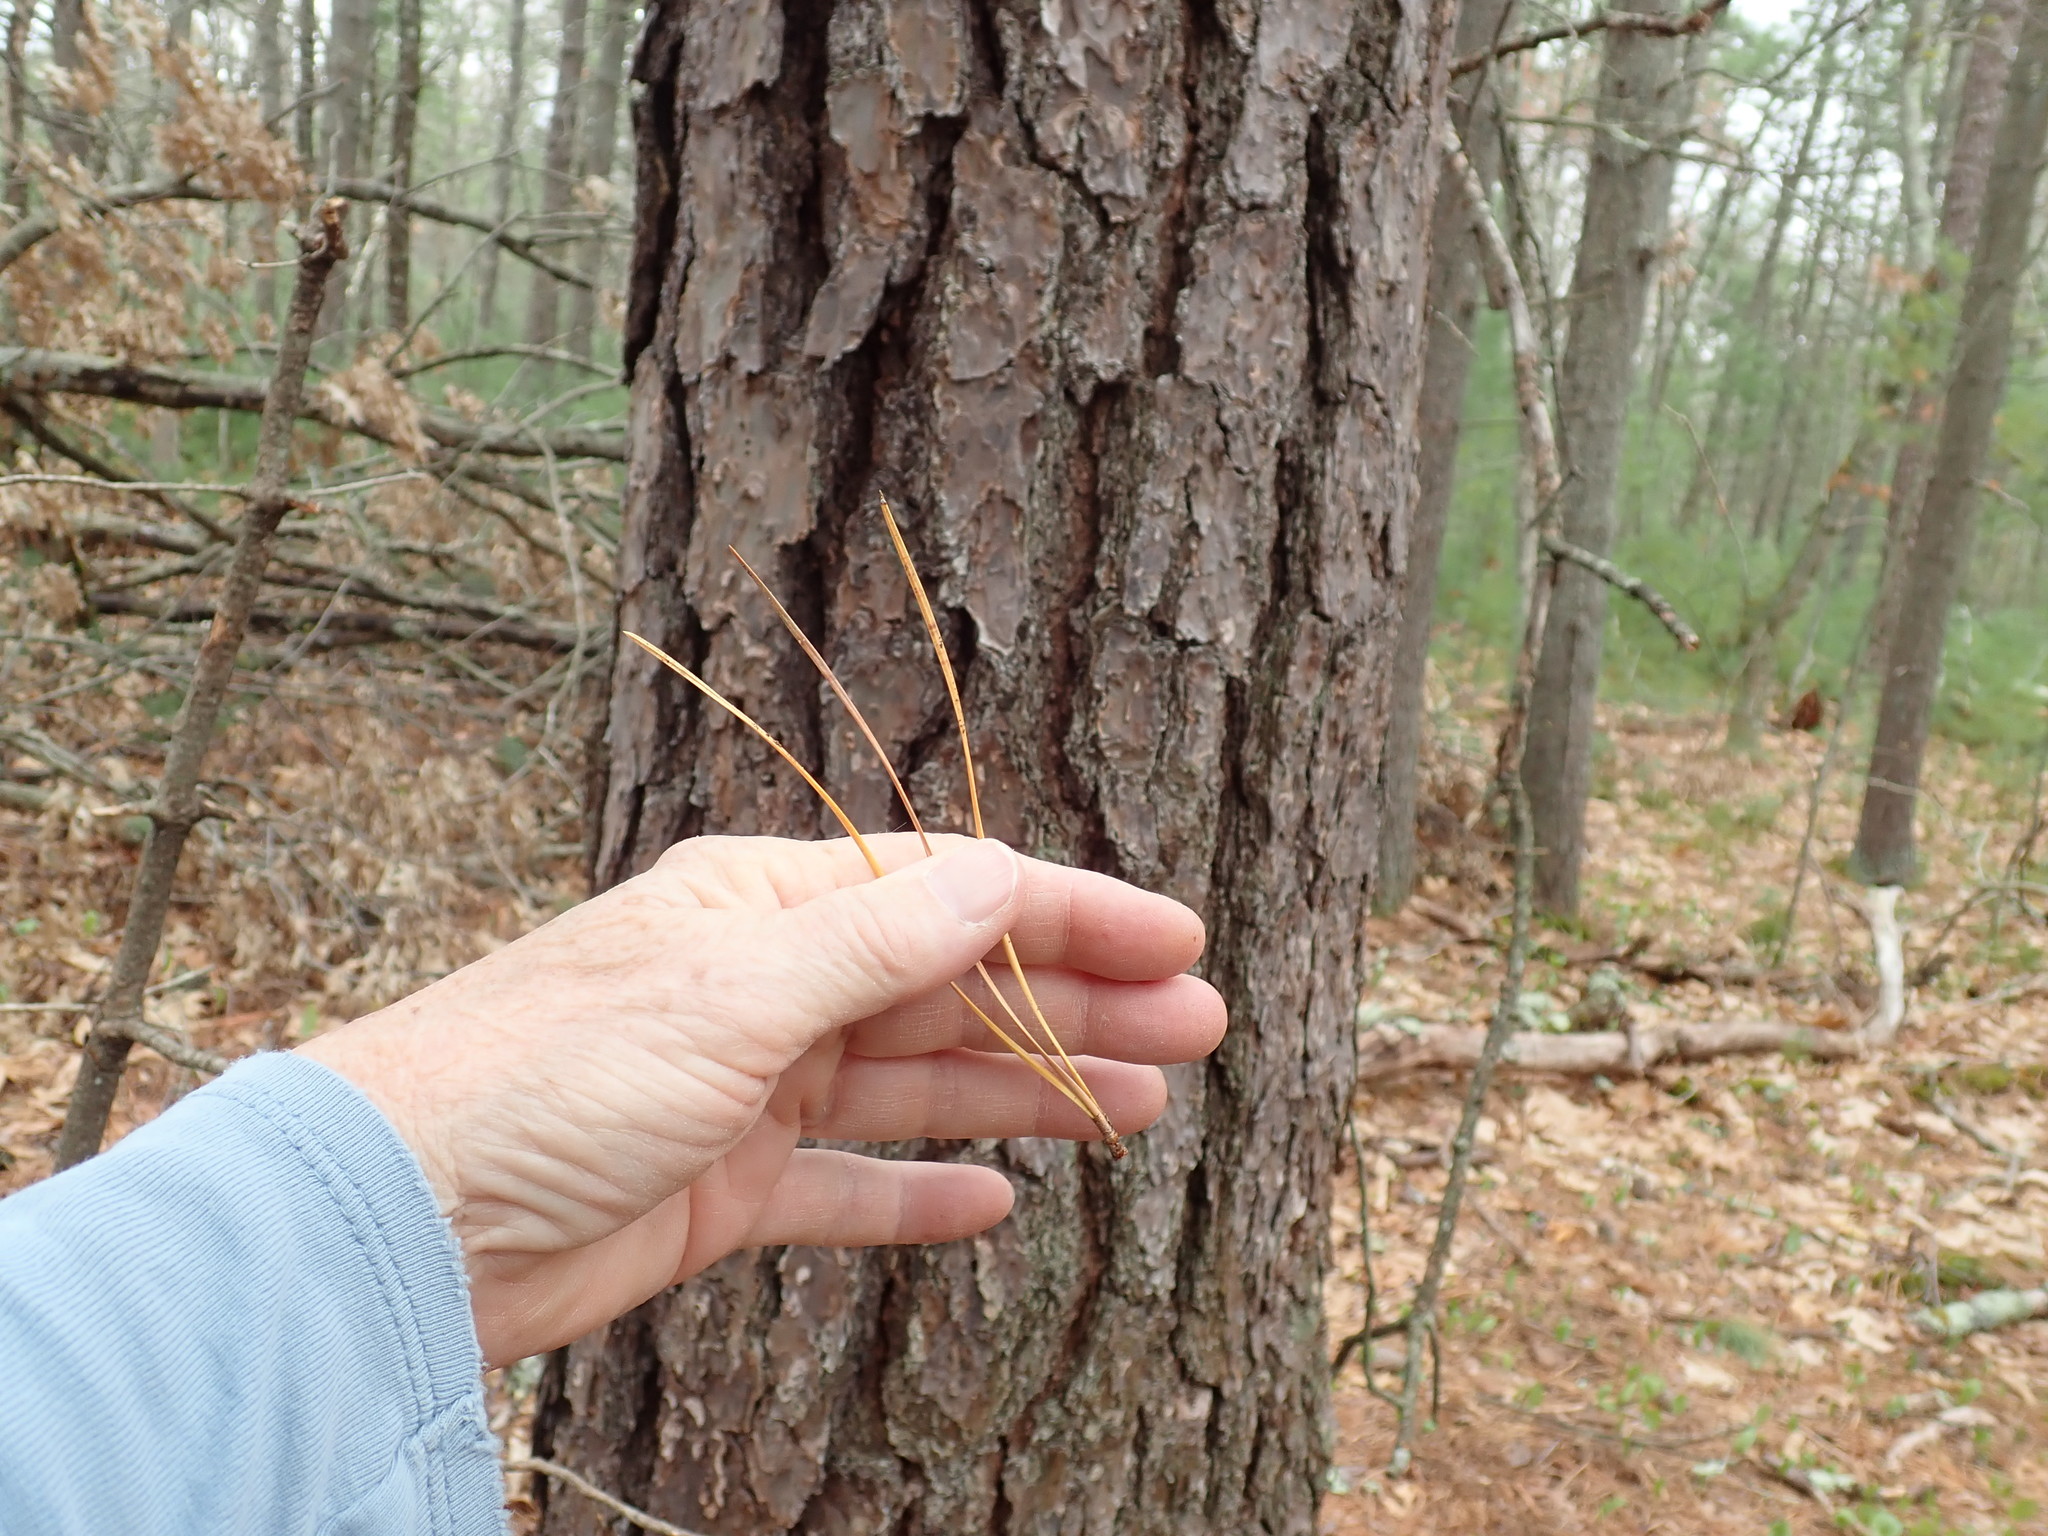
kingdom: Plantae
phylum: Tracheophyta
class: Pinopsida
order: Pinales
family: Pinaceae
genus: Pinus
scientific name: Pinus rigida
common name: Pitch pine
